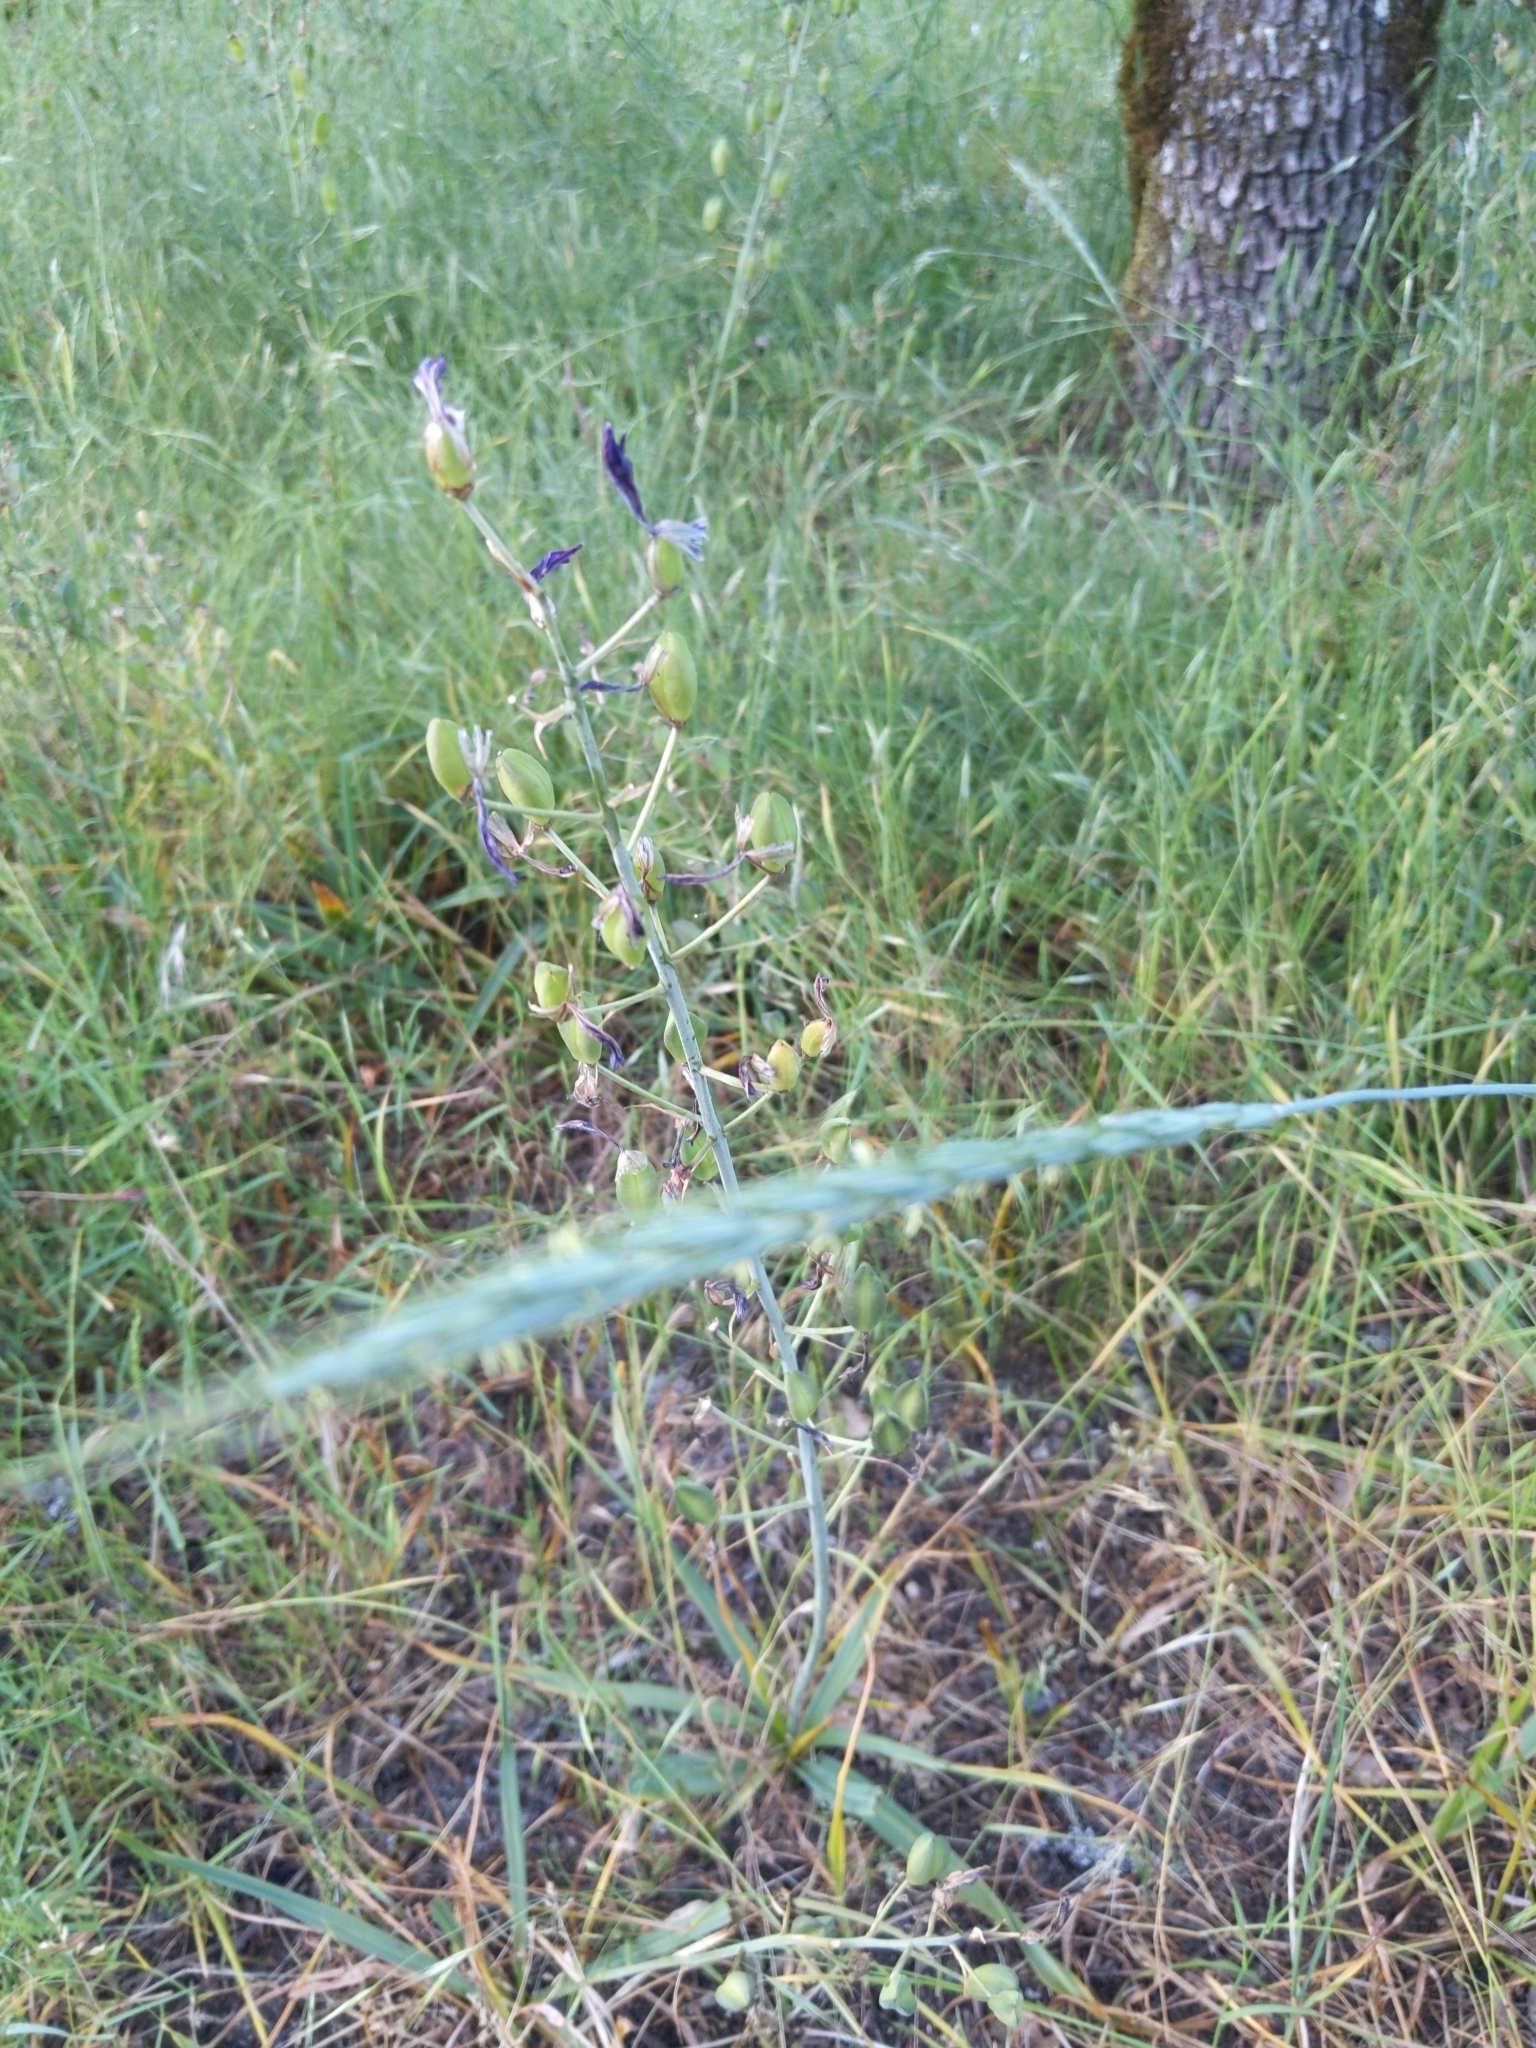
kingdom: Plantae
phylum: Tracheophyta
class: Liliopsida
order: Asparagales
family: Asparagaceae
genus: Camassia
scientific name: Camassia quamash
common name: Common camas
